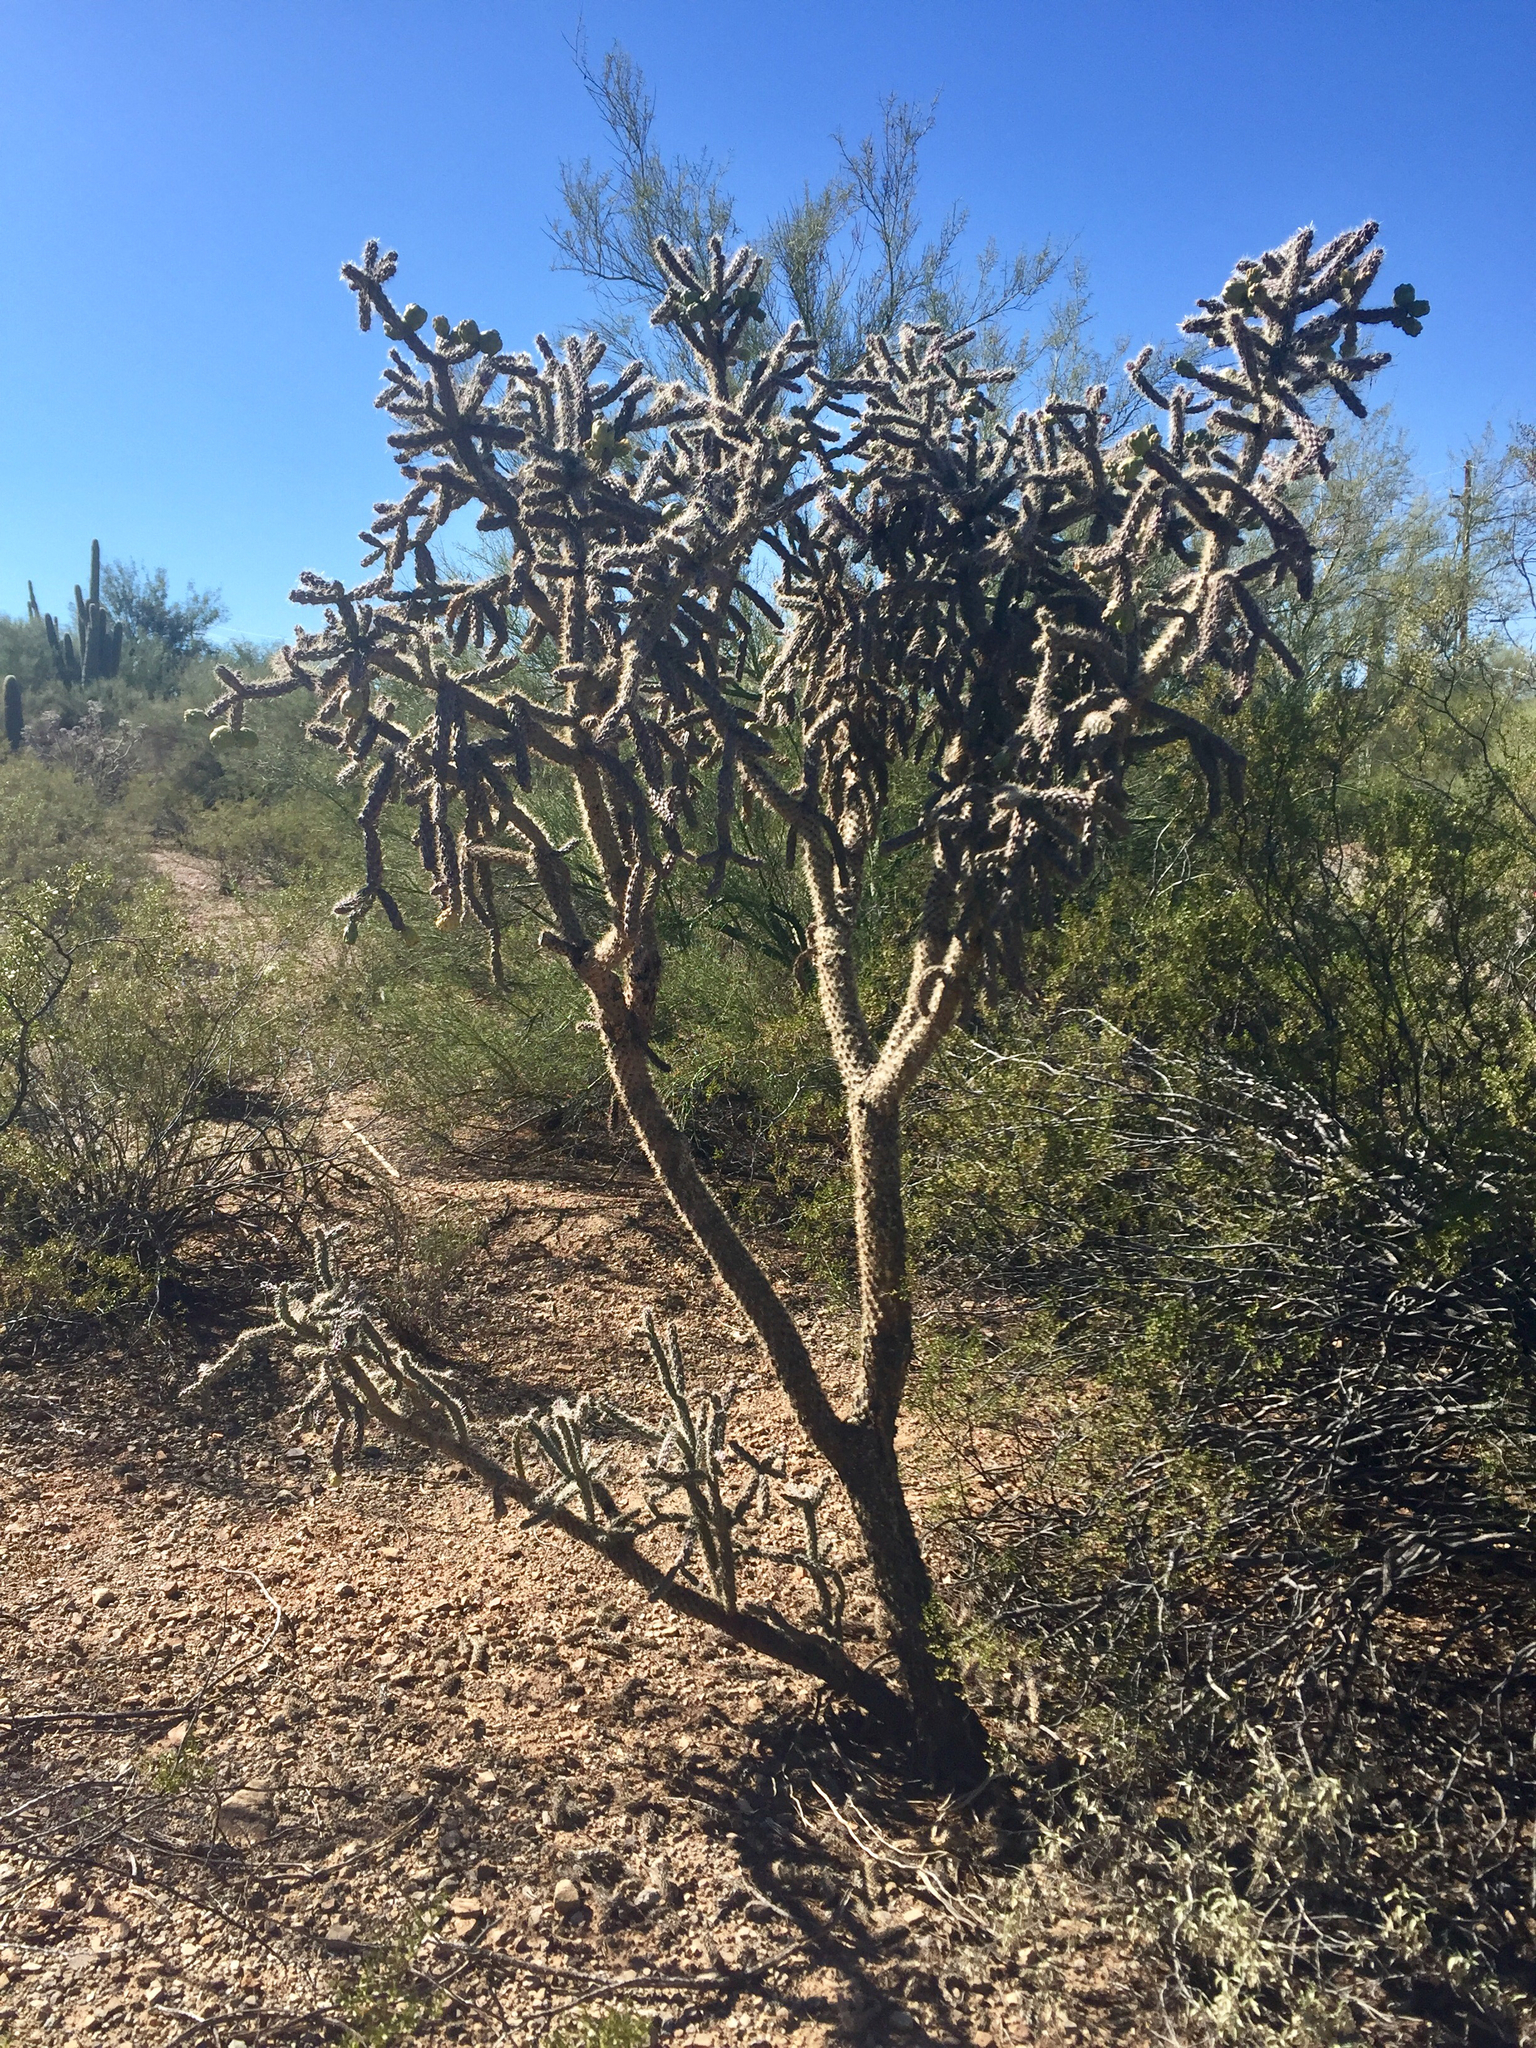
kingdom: Plantae
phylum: Tracheophyta
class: Magnoliopsida
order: Caryophyllales
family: Cactaceae
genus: Cylindropuntia
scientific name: Cylindropuntia imbricata
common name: Candelabrum cactus
